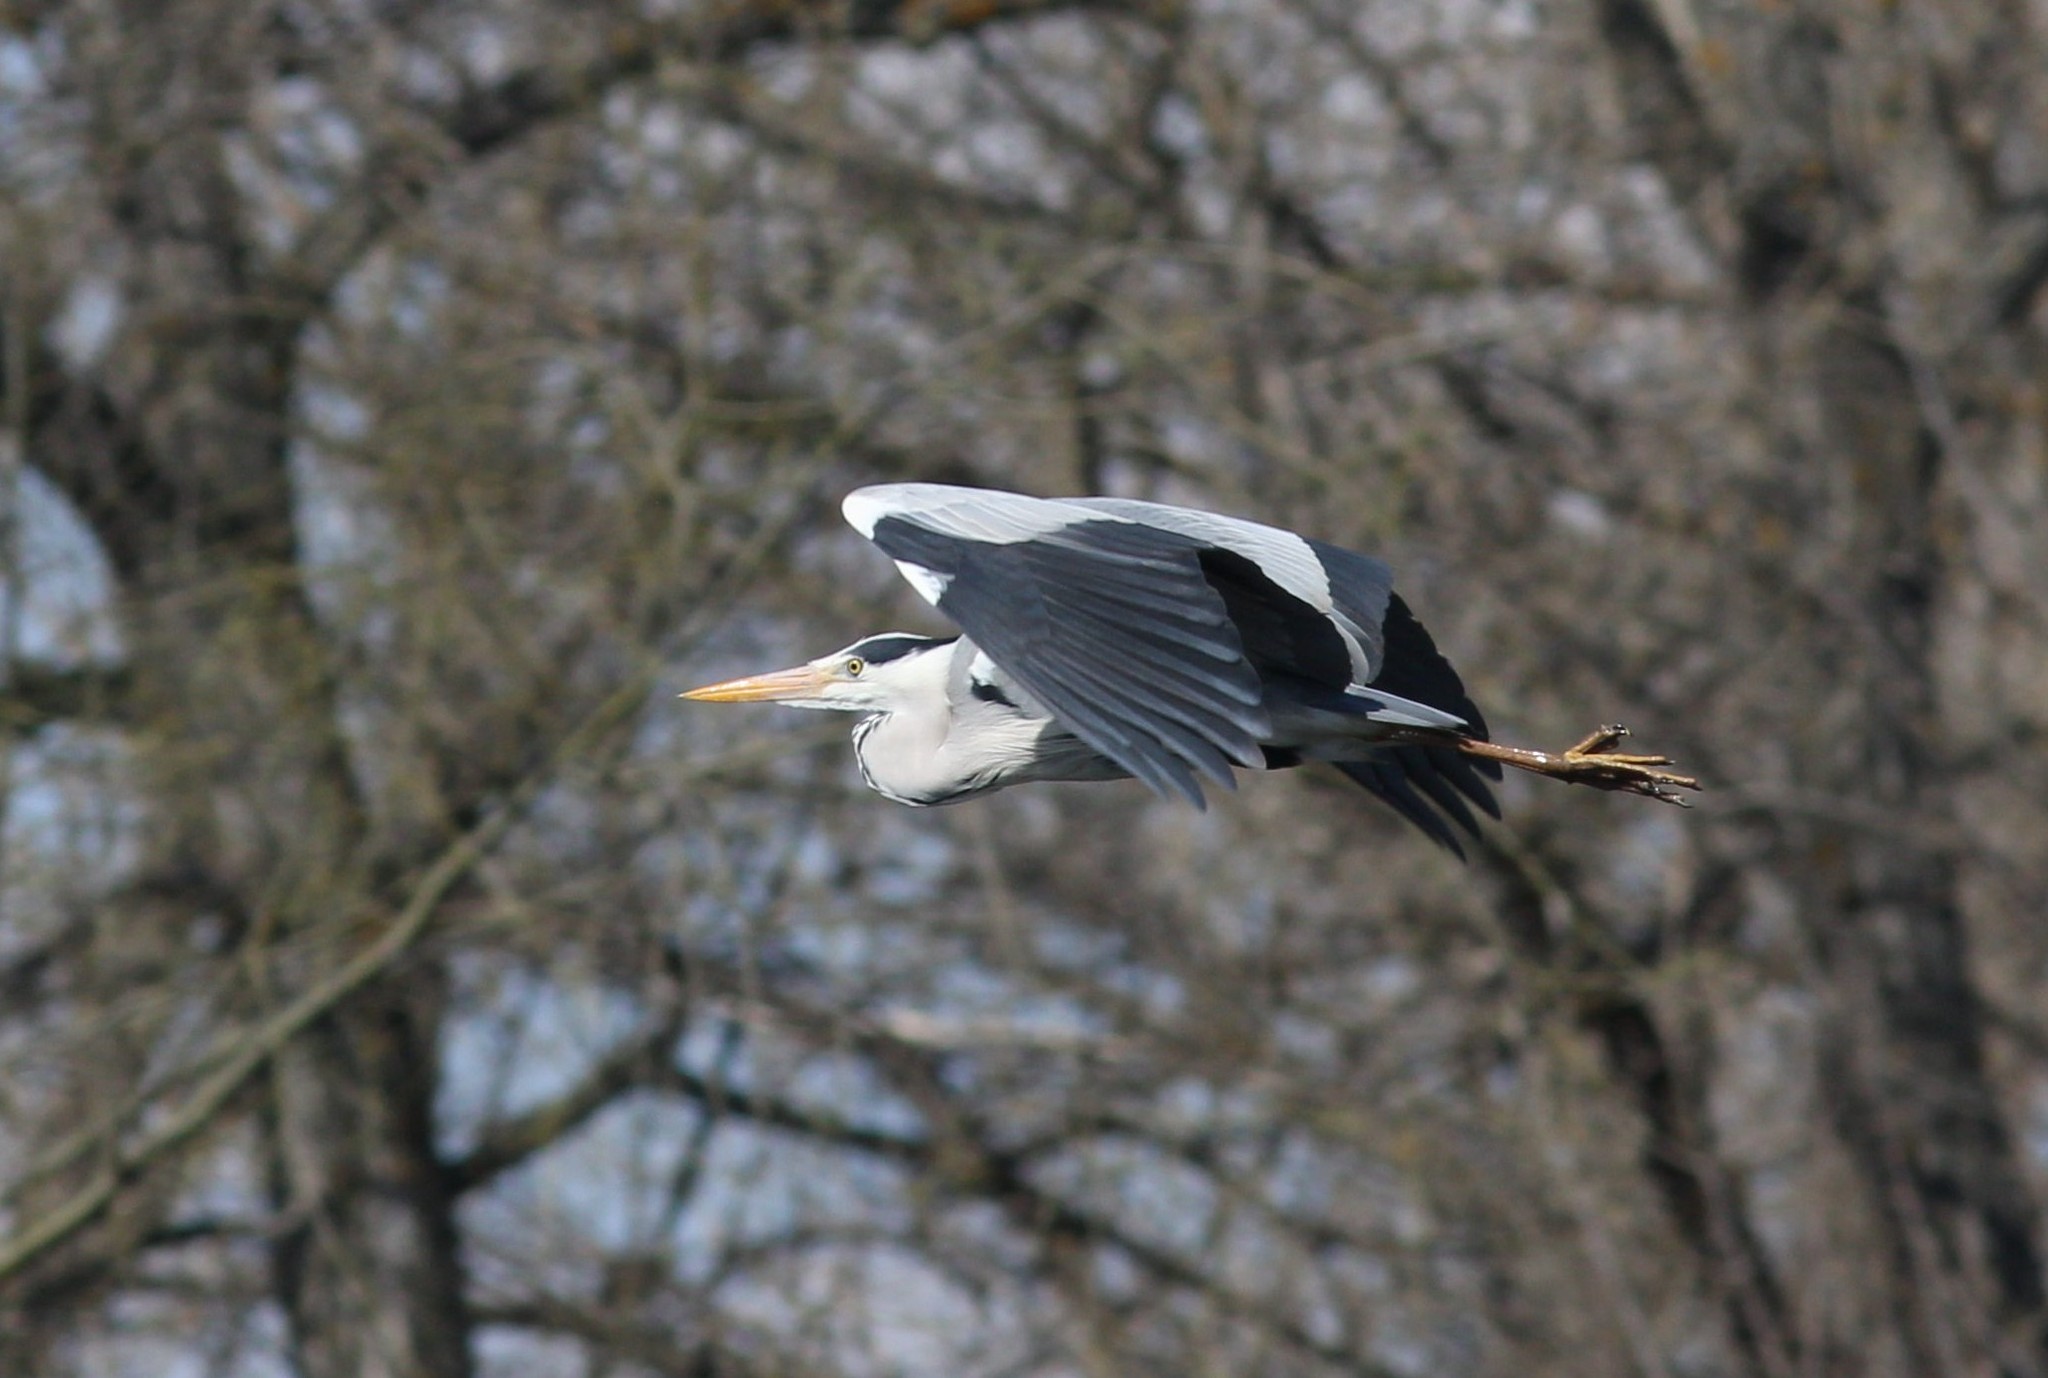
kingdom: Animalia
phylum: Chordata
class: Aves
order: Pelecaniformes
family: Ardeidae
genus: Ardea
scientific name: Ardea cinerea
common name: Grey heron
